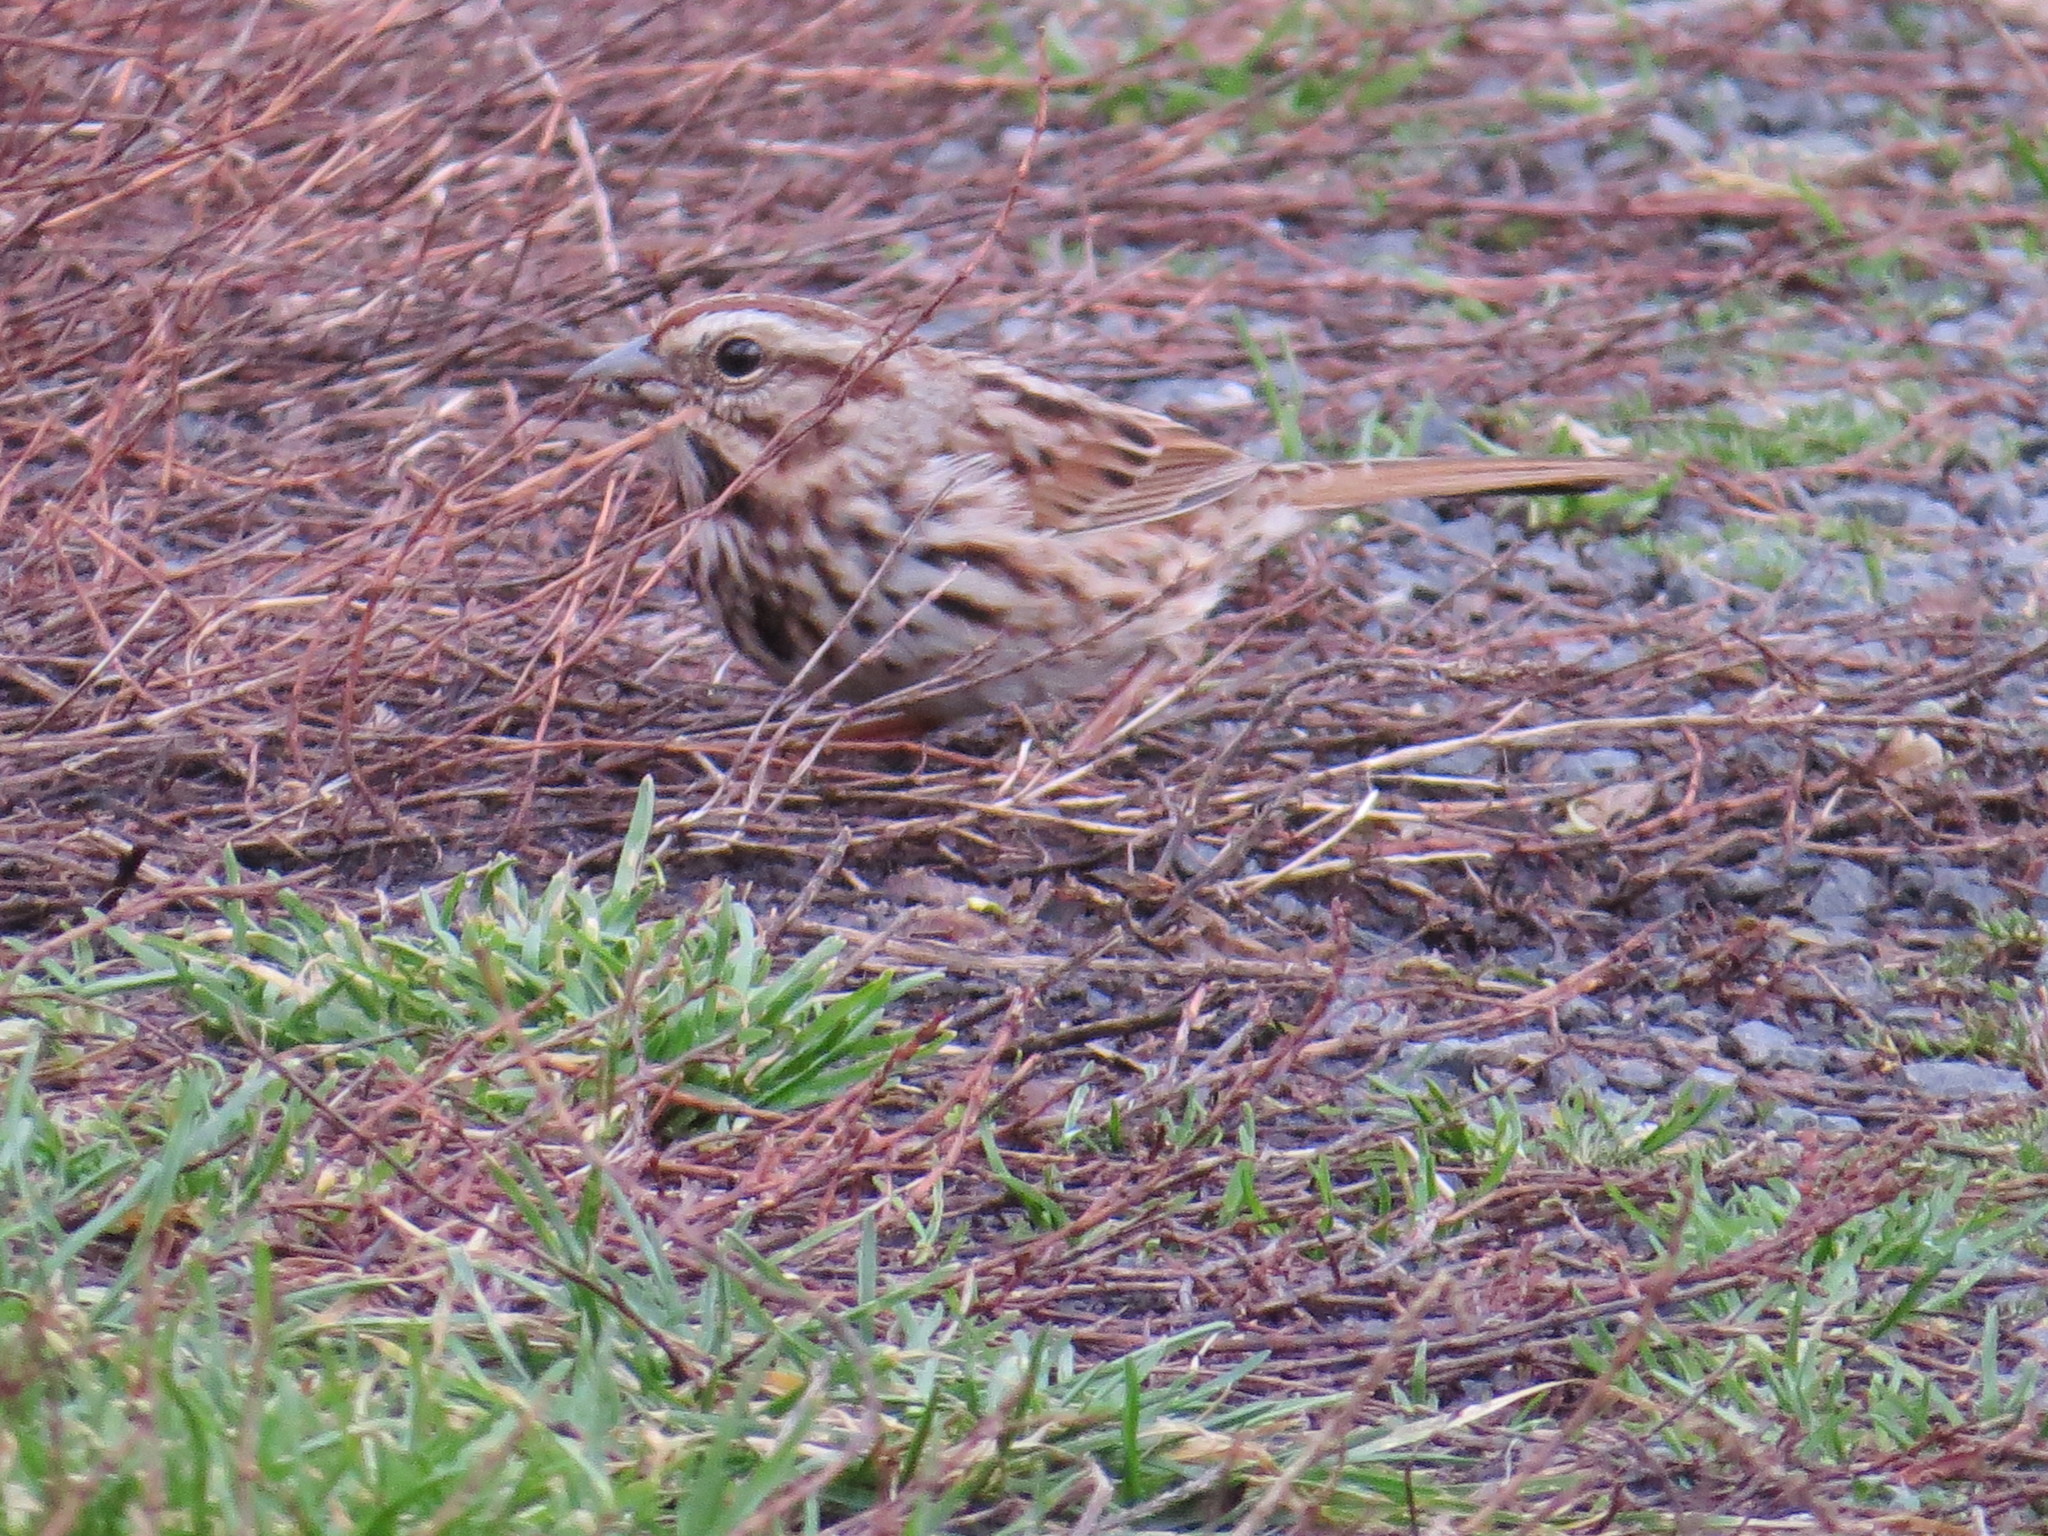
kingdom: Animalia
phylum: Chordata
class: Aves
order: Passeriformes
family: Passerellidae
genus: Melospiza
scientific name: Melospiza melodia
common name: Song sparrow
